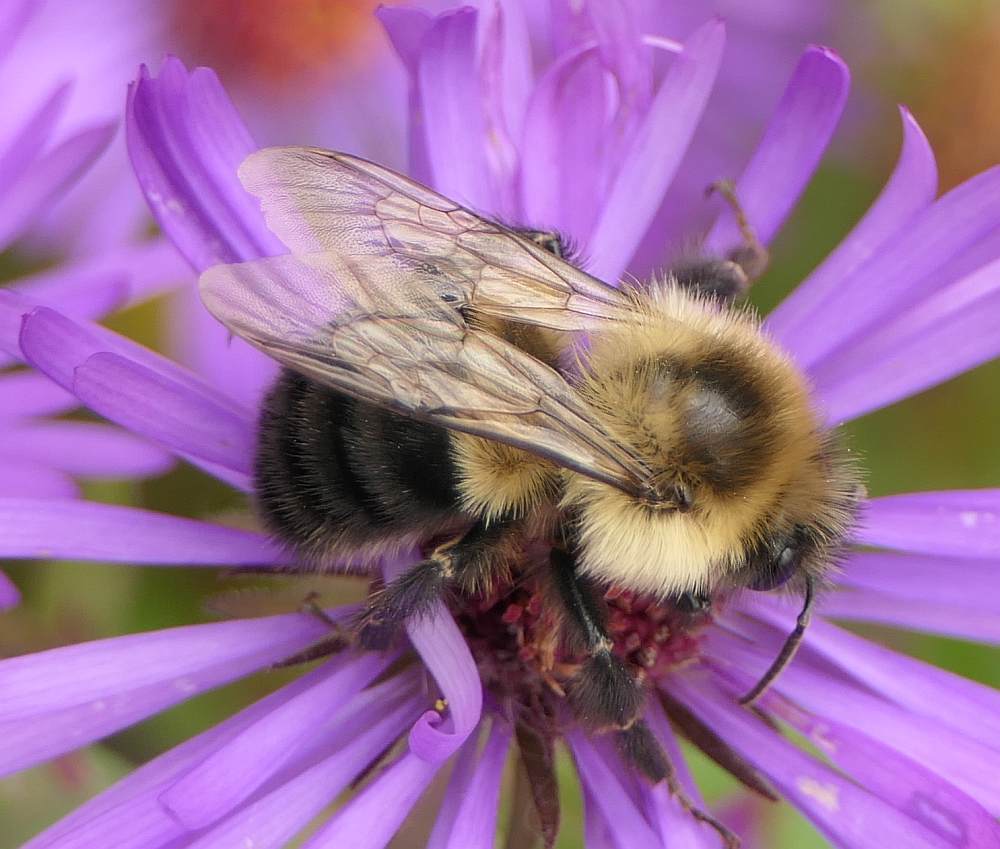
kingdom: Animalia
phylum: Arthropoda
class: Insecta
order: Hymenoptera
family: Apidae
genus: Bombus
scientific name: Bombus impatiens
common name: Common eastern bumble bee
